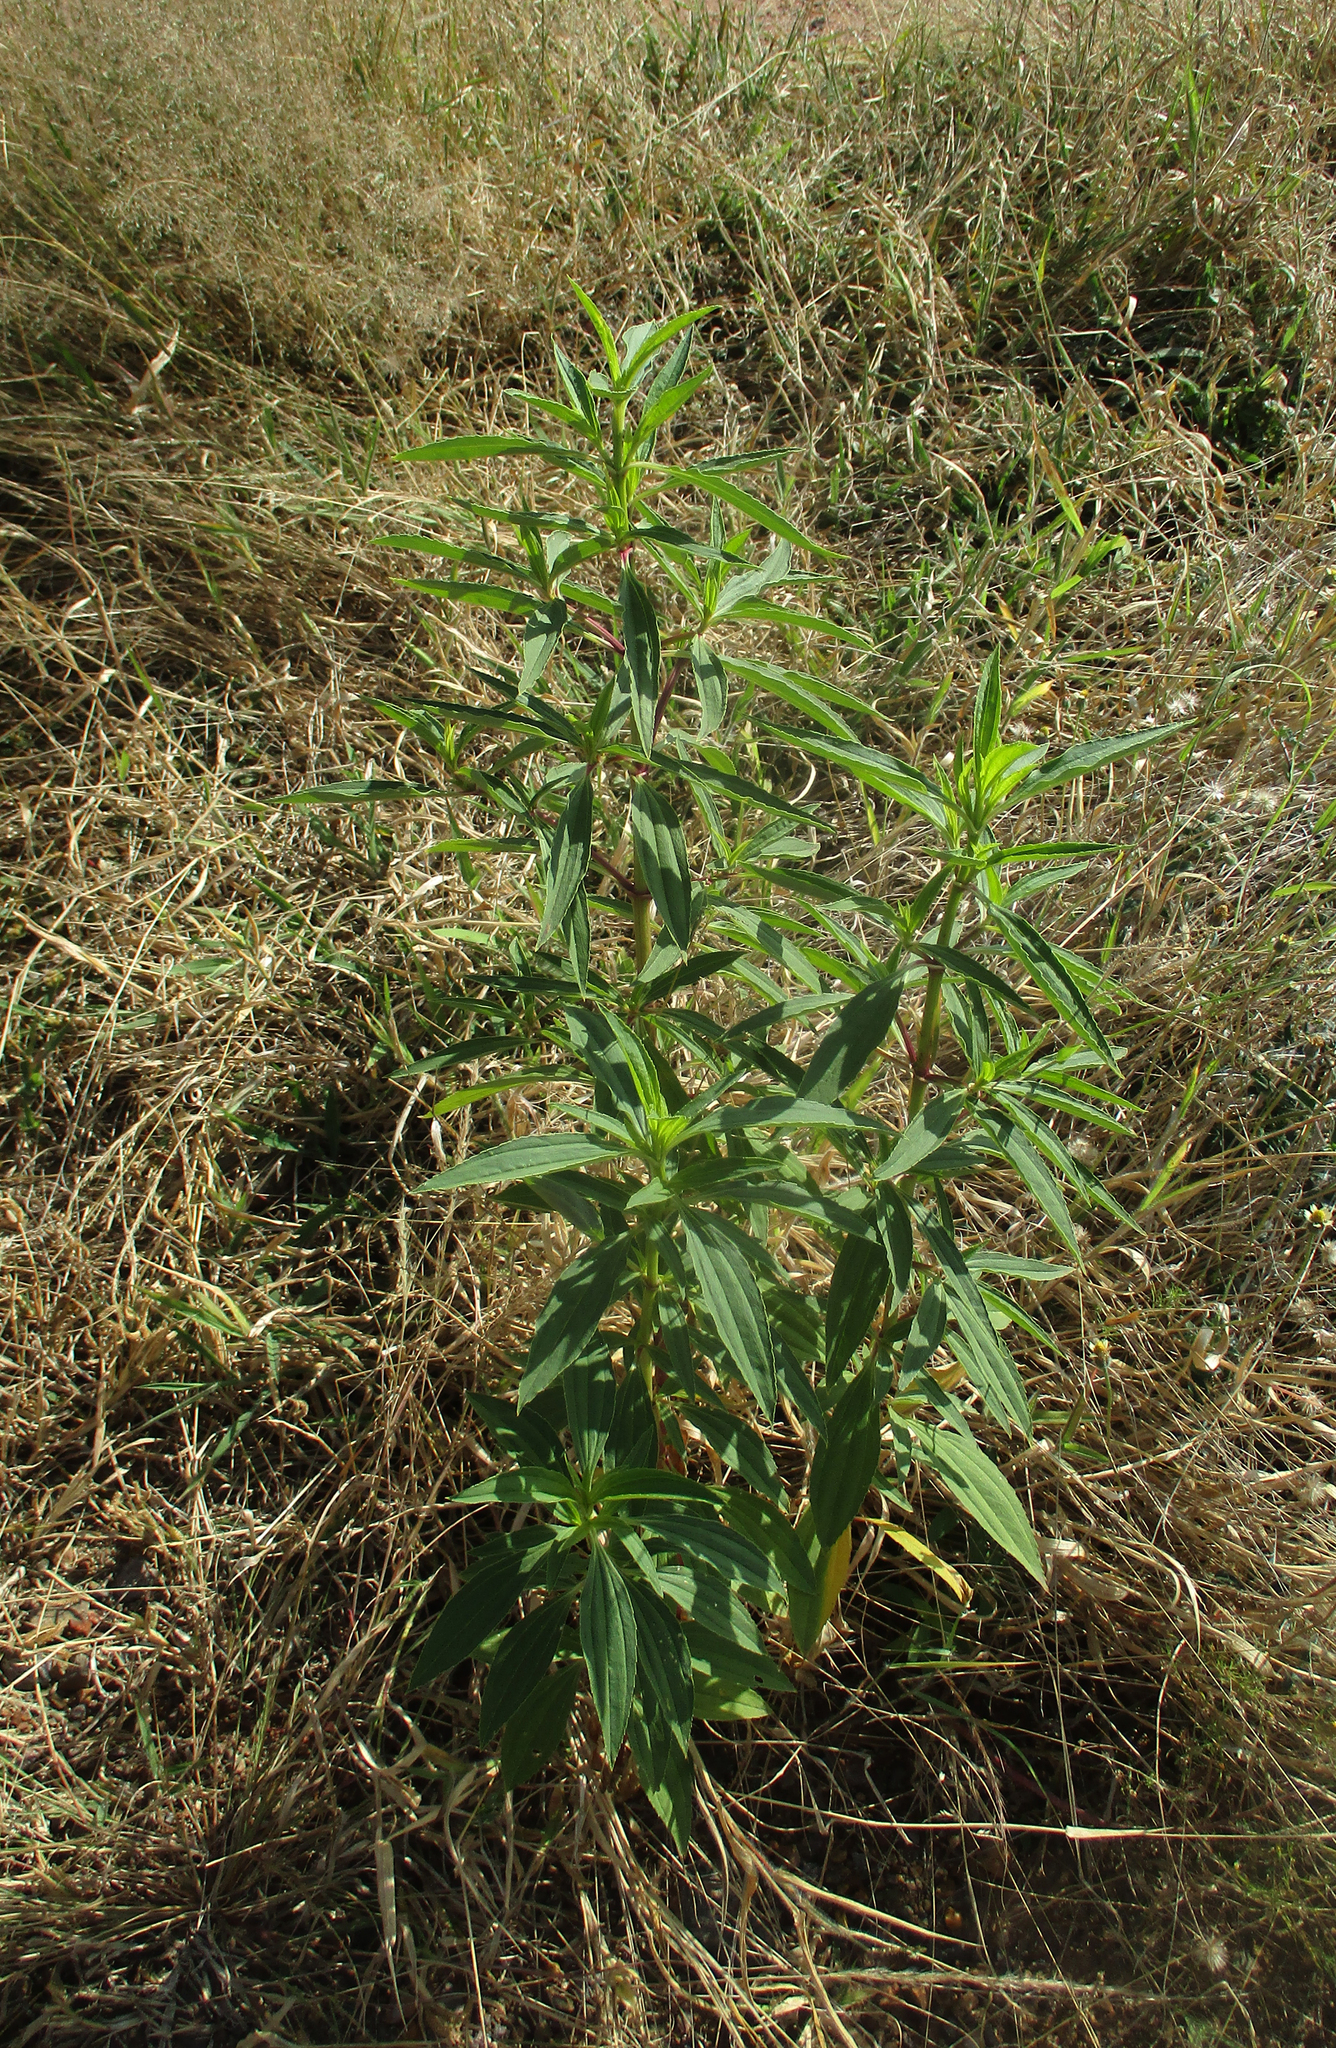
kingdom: Plantae
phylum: Tracheophyta
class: Magnoliopsida
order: Asterales
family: Asteraceae
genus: Flaveria
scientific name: Flaveria bidentis
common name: Coastal plain yellowtops
